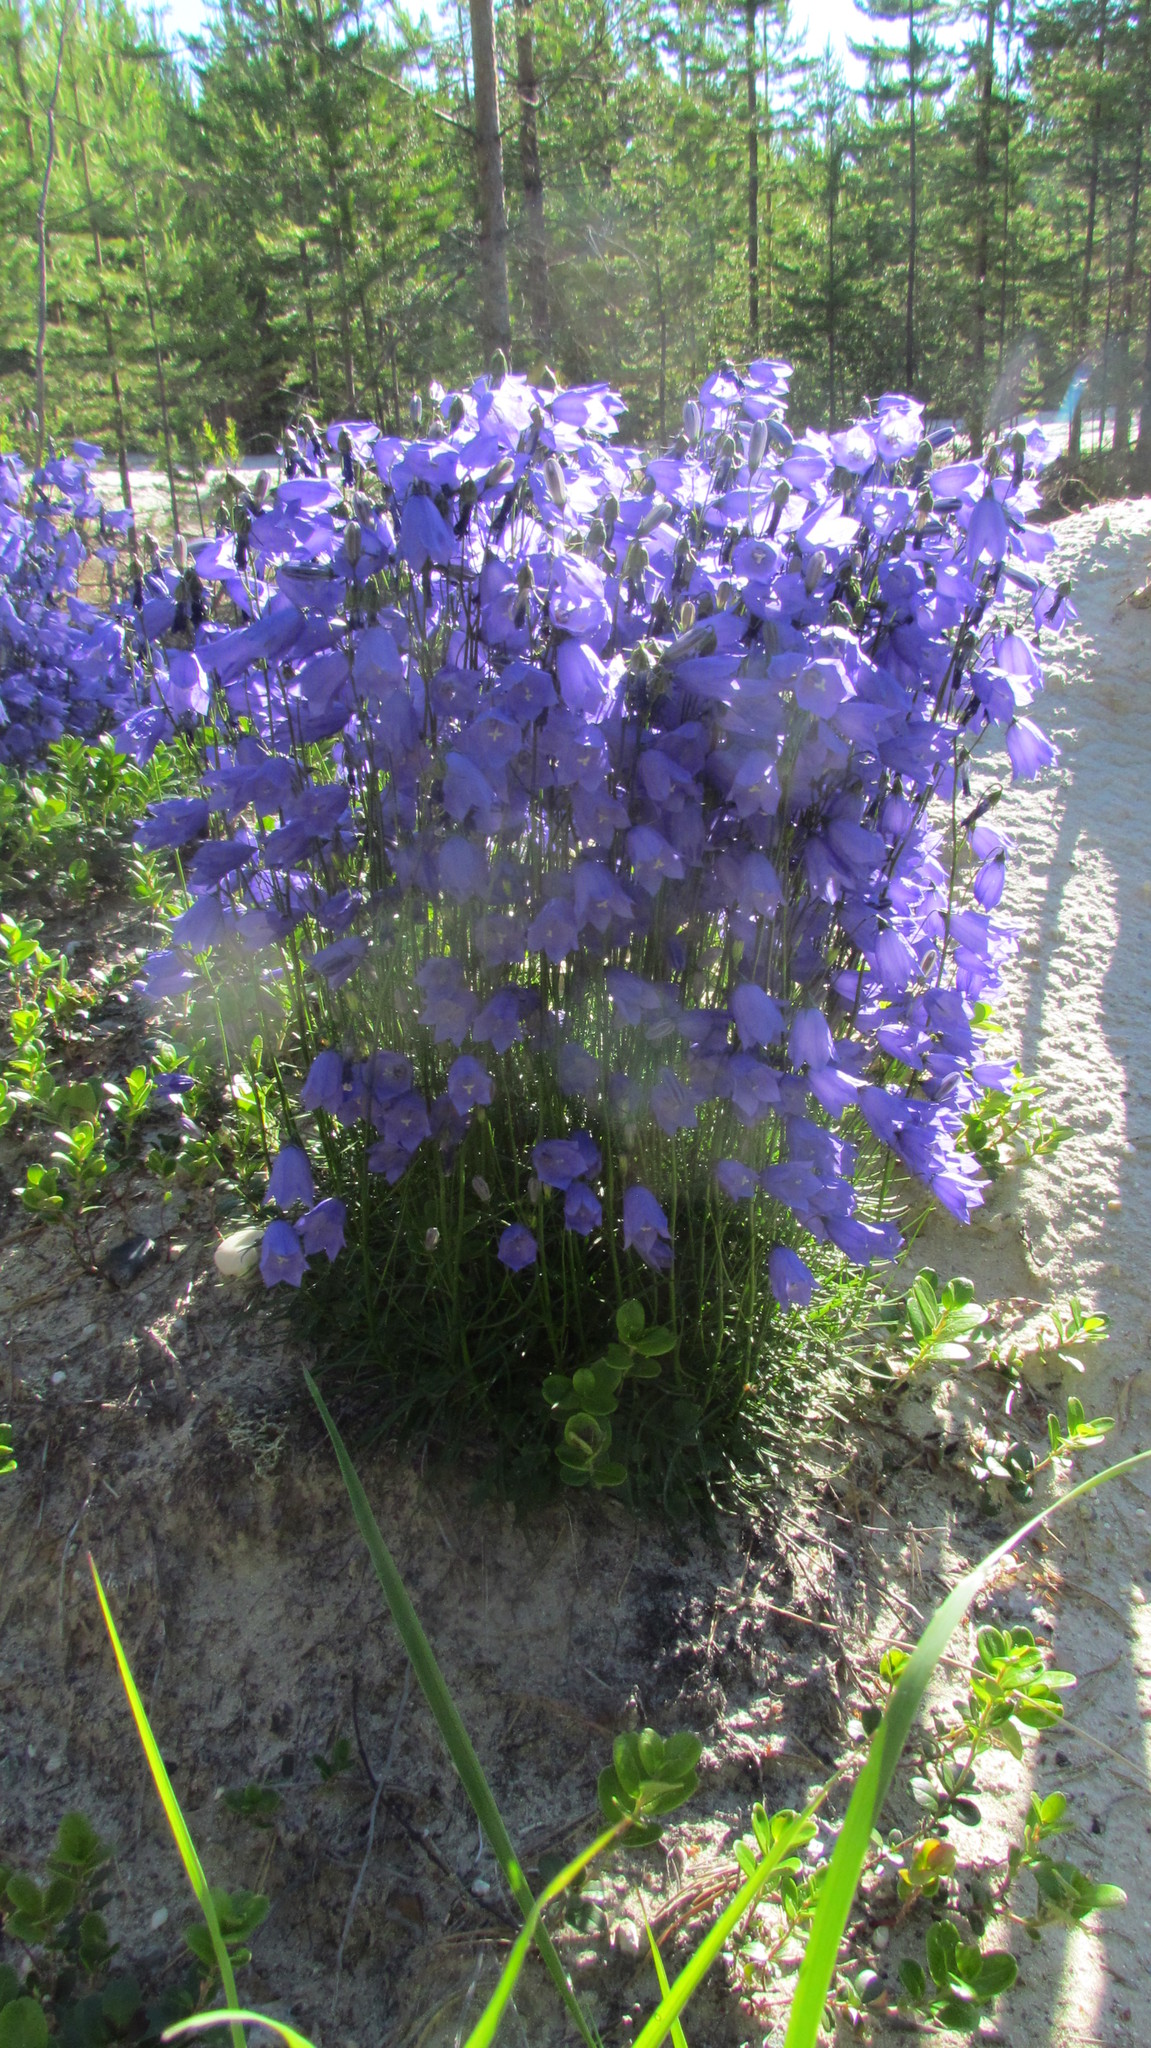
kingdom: Plantae
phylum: Tracheophyta
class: Magnoliopsida
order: Asterales
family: Campanulaceae
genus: Campanula
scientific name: Campanula rotundifolia
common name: Harebell
